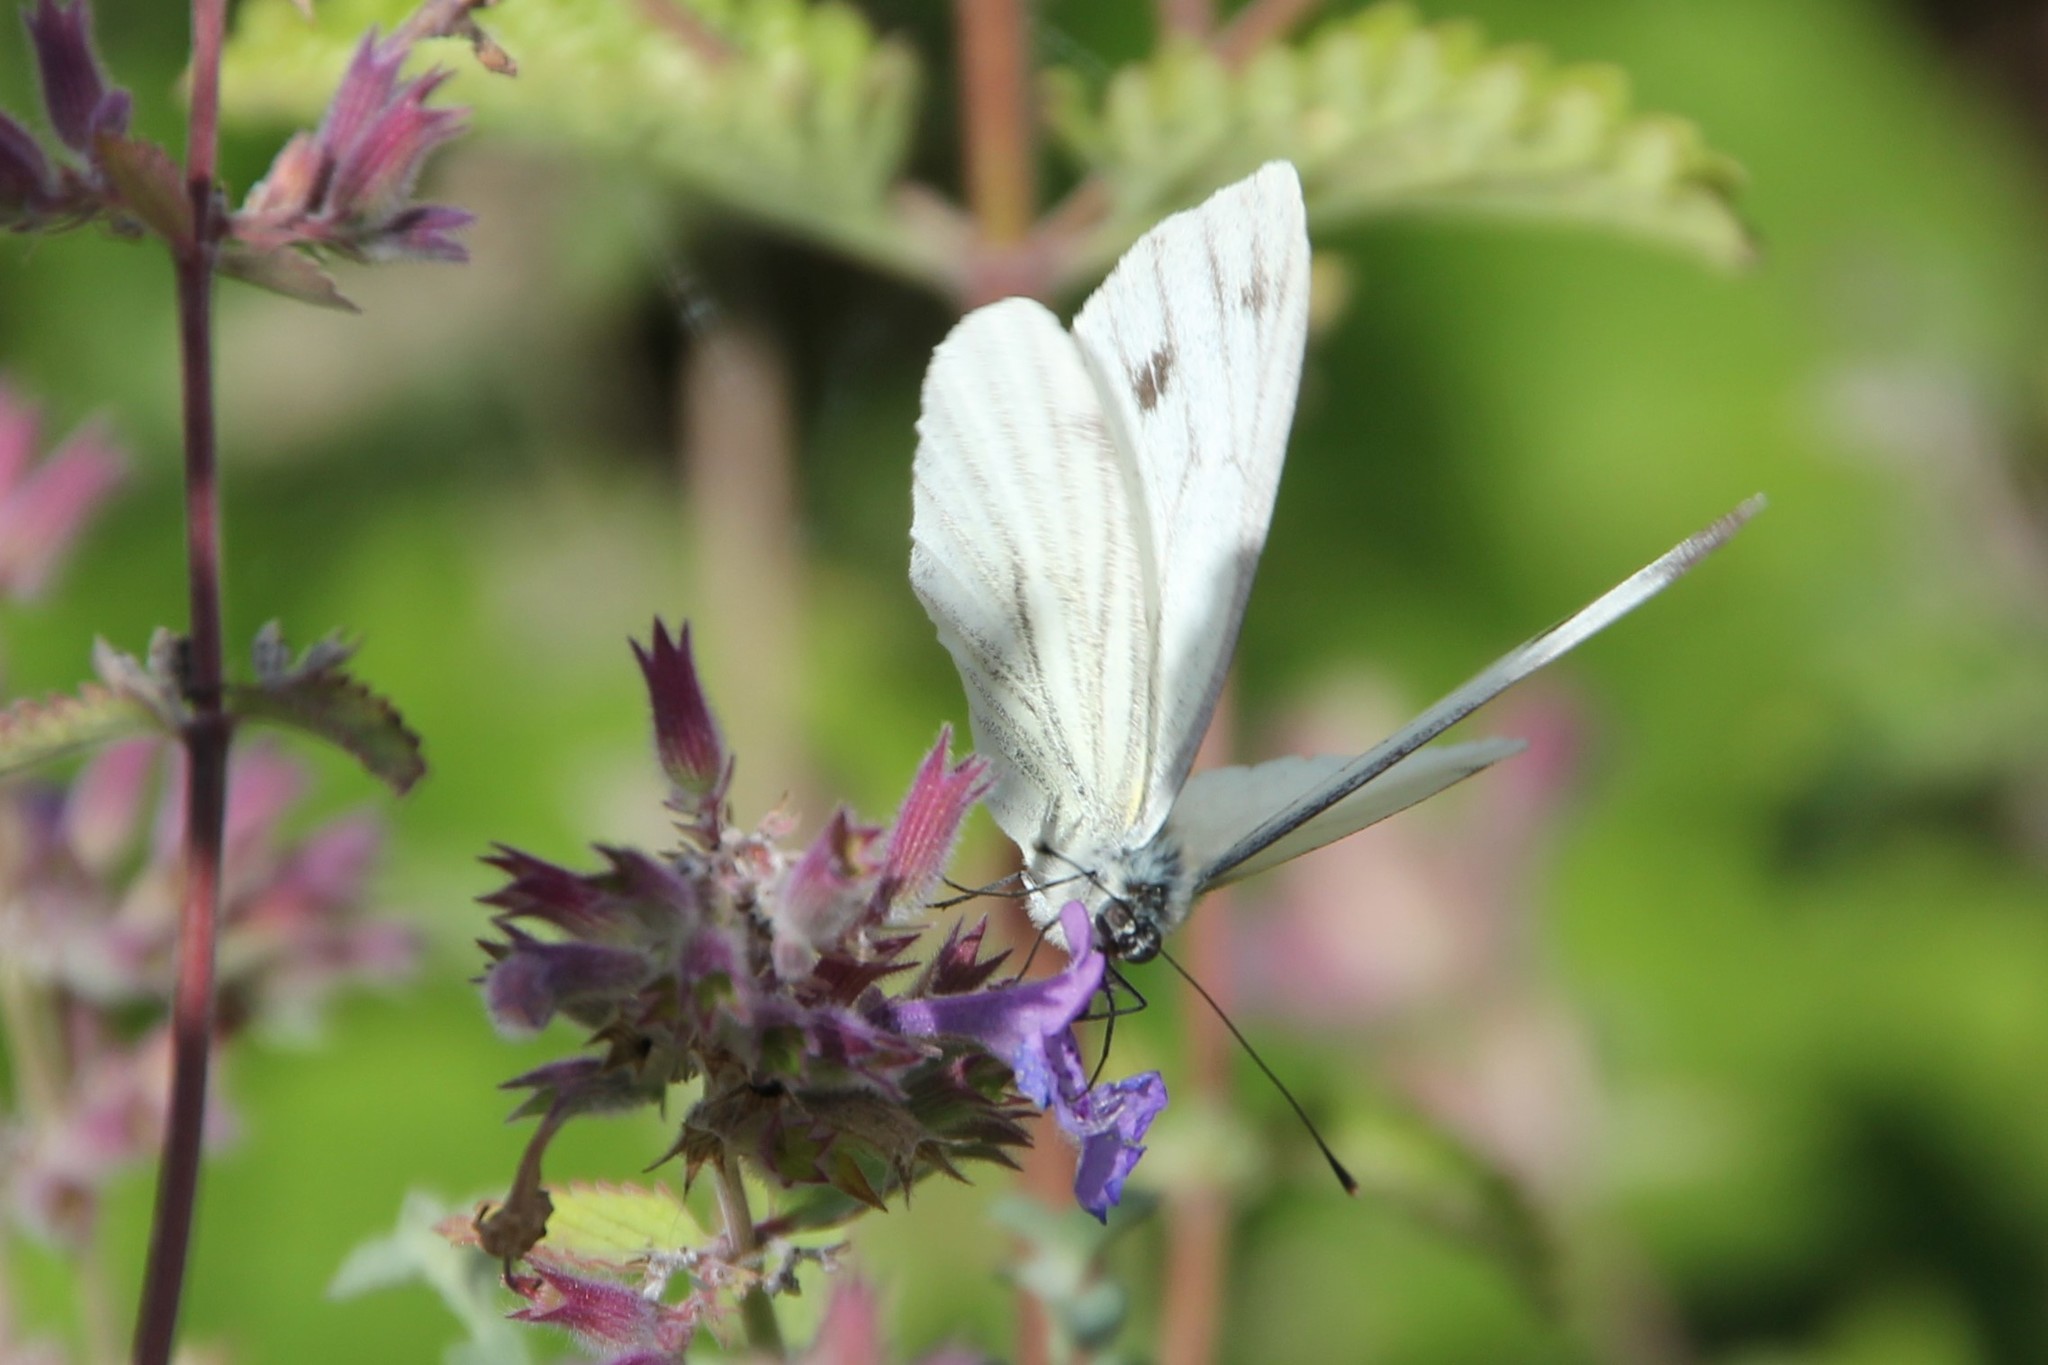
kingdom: Animalia
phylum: Arthropoda
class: Insecta
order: Lepidoptera
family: Pieridae
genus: Pieris
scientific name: Pieris napi
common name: Green-veined white
